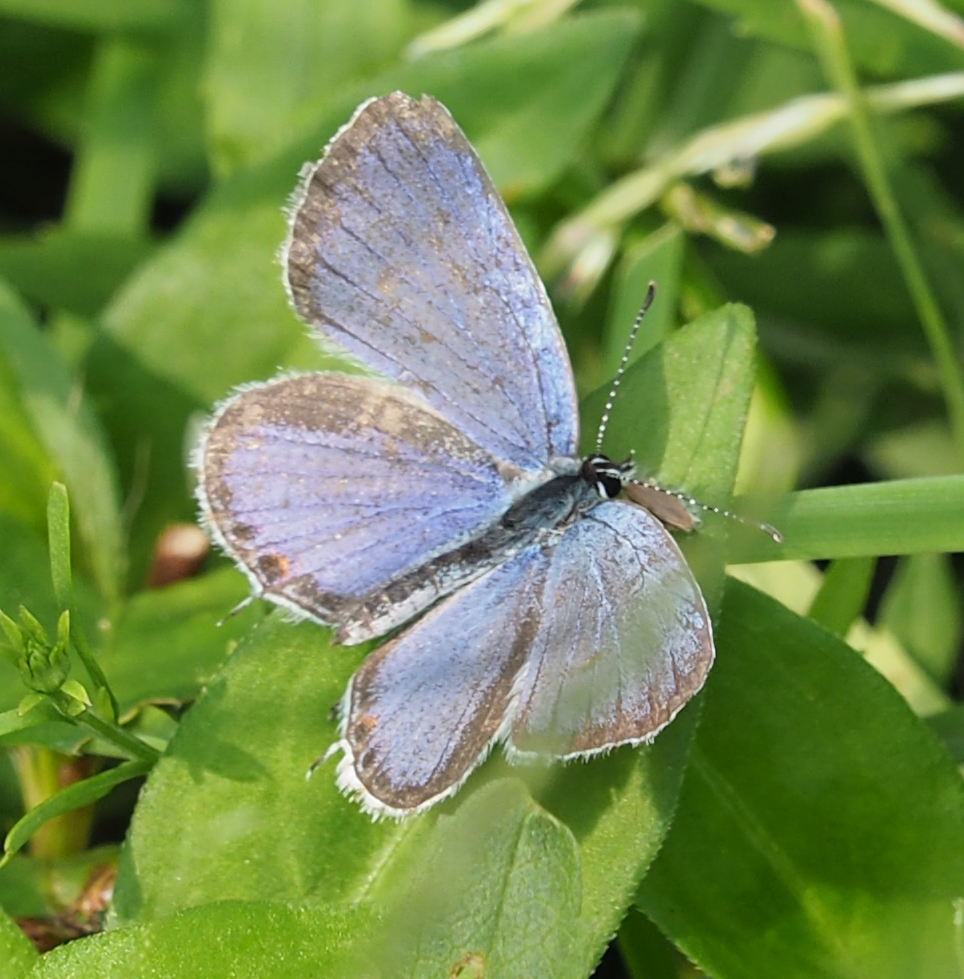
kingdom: Animalia
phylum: Arthropoda
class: Insecta
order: Lepidoptera
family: Lycaenidae
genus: Elkalyce
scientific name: Elkalyce comyntas
